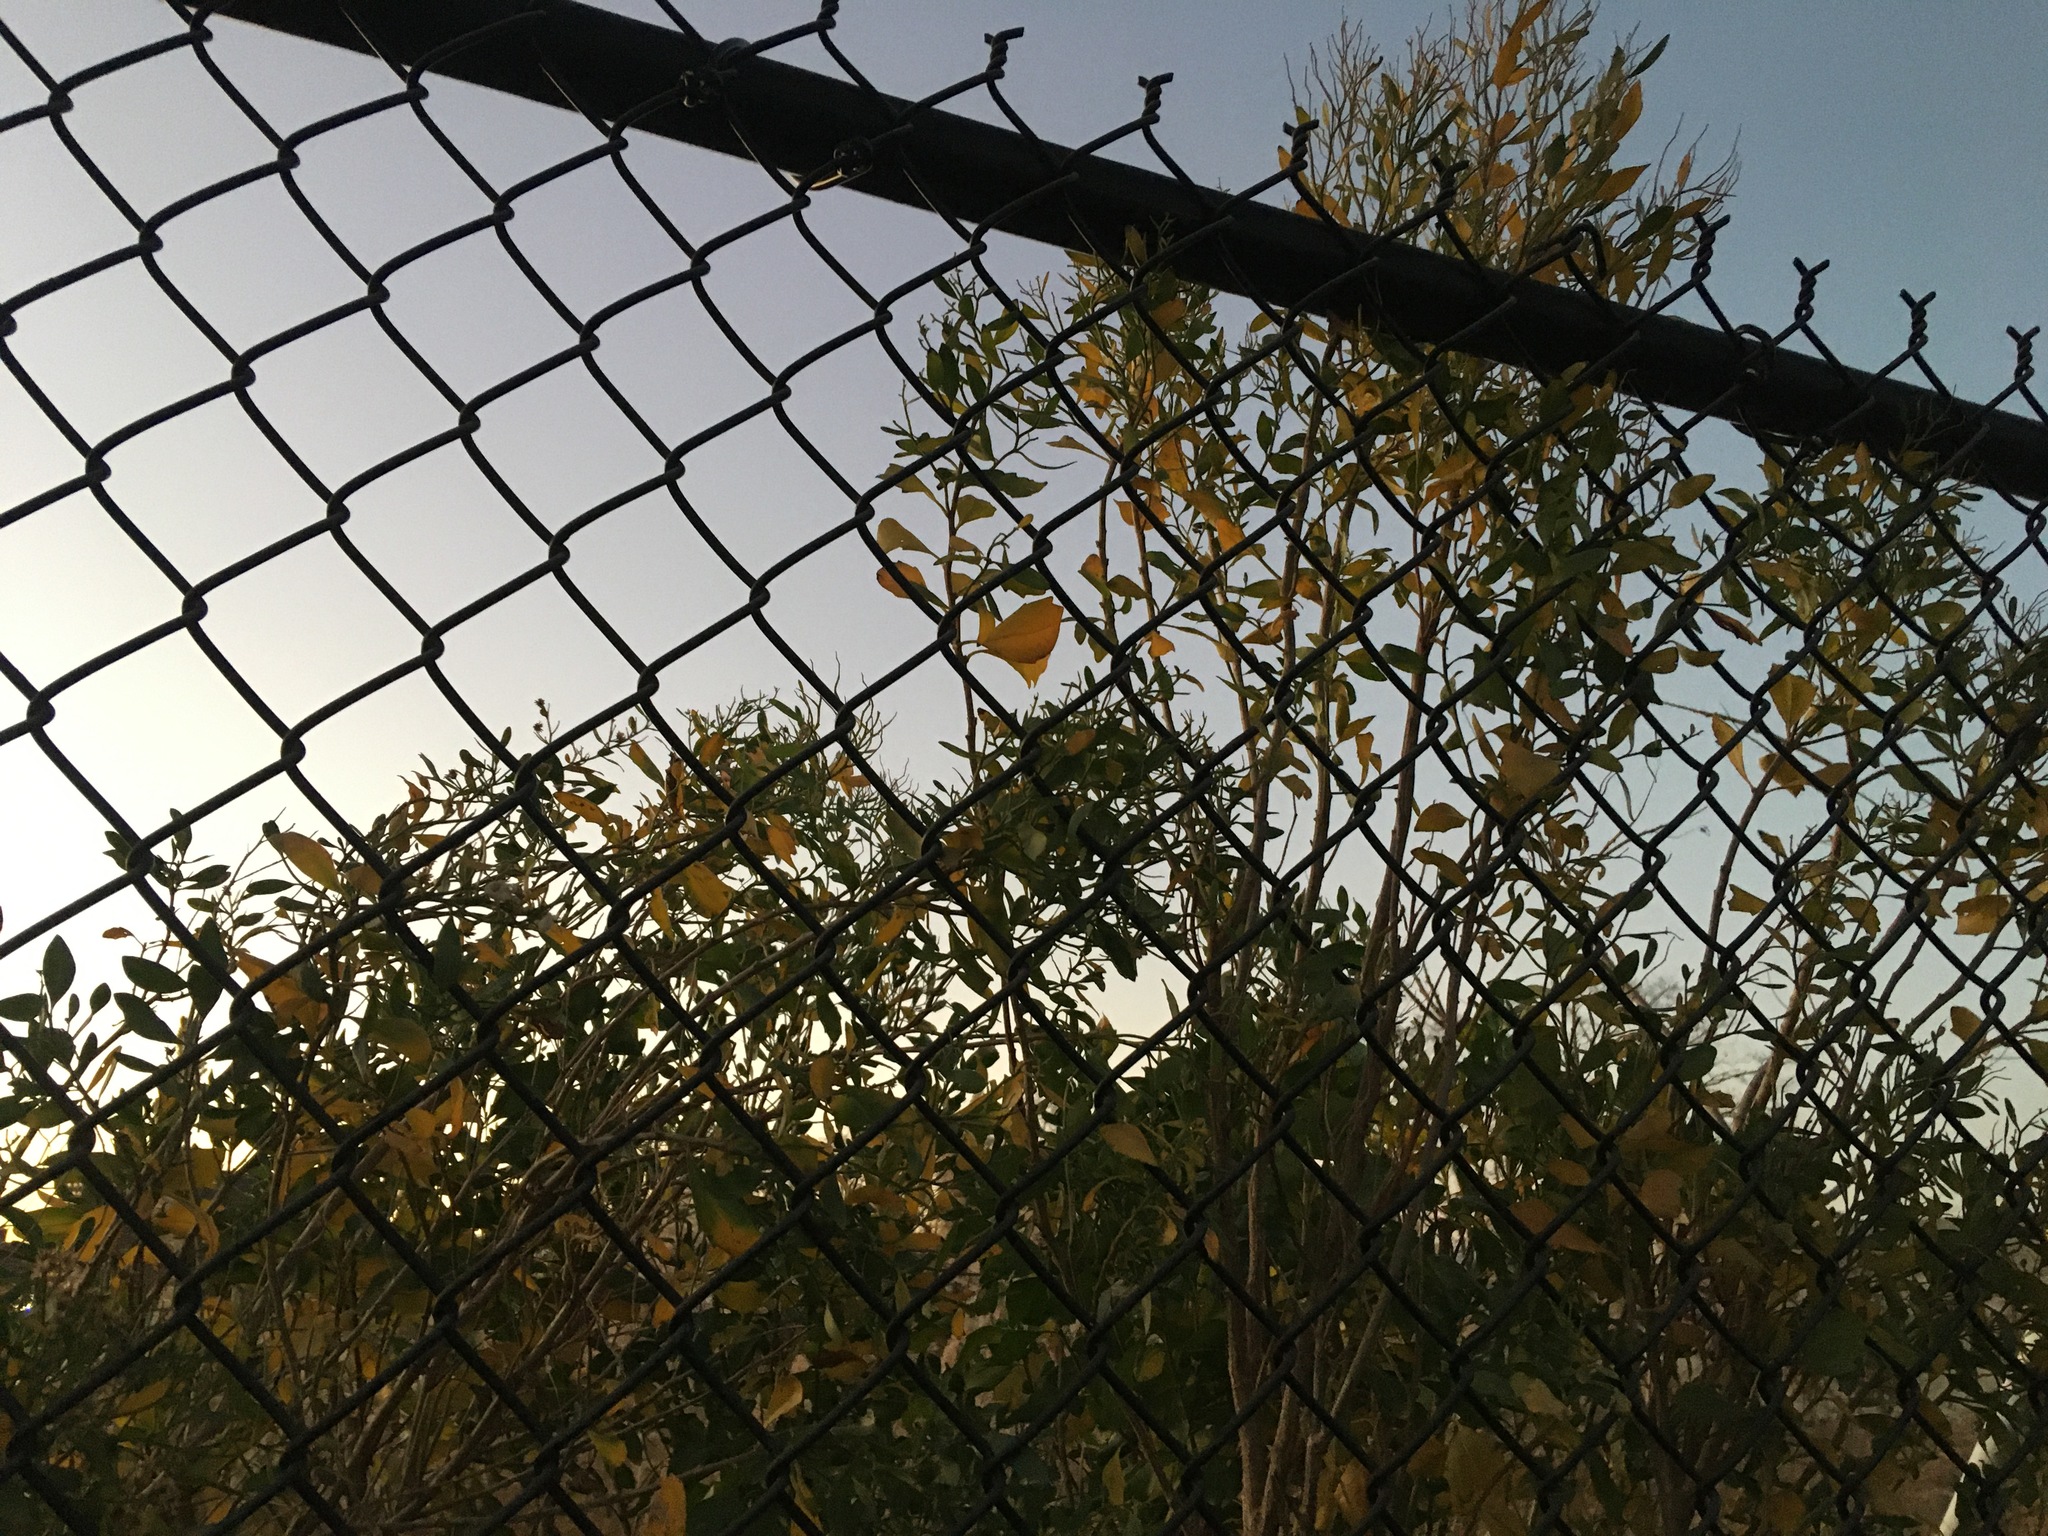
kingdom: Plantae
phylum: Tracheophyta
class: Magnoliopsida
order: Asterales
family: Asteraceae
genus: Baccharis
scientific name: Baccharis halimifolia
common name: Eastern baccharis
